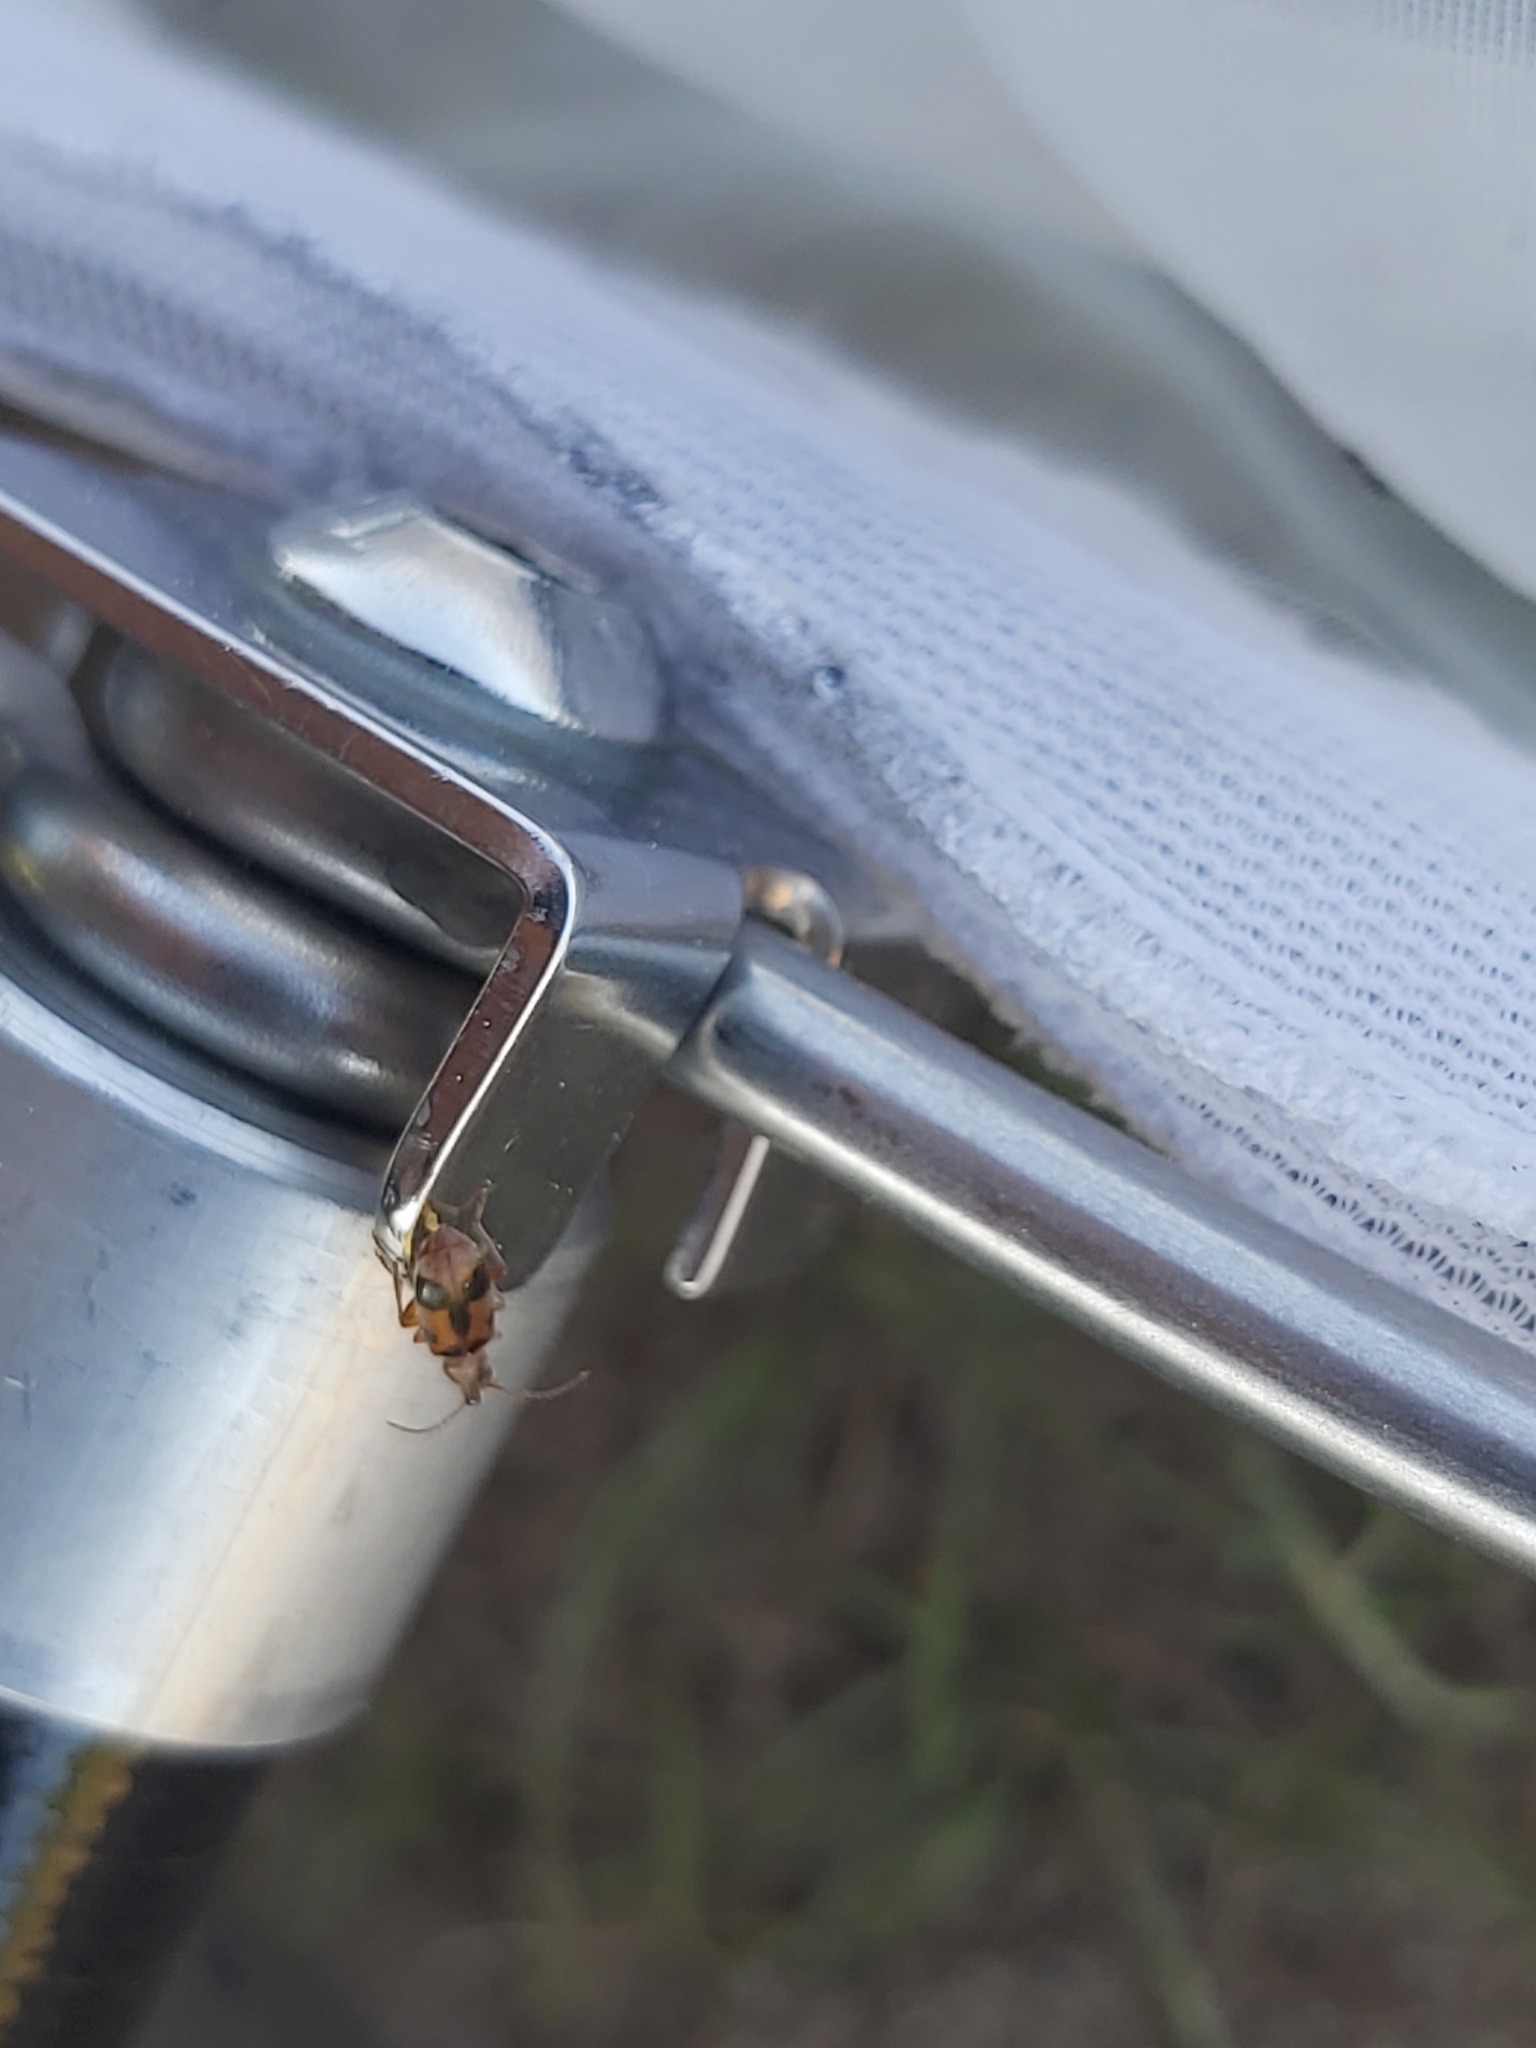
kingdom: Animalia
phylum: Arthropoda
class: Insecta
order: Coleoptera
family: Anthicidae
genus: Notoxus
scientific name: Notoxus monoceros
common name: Monoceros beetle
